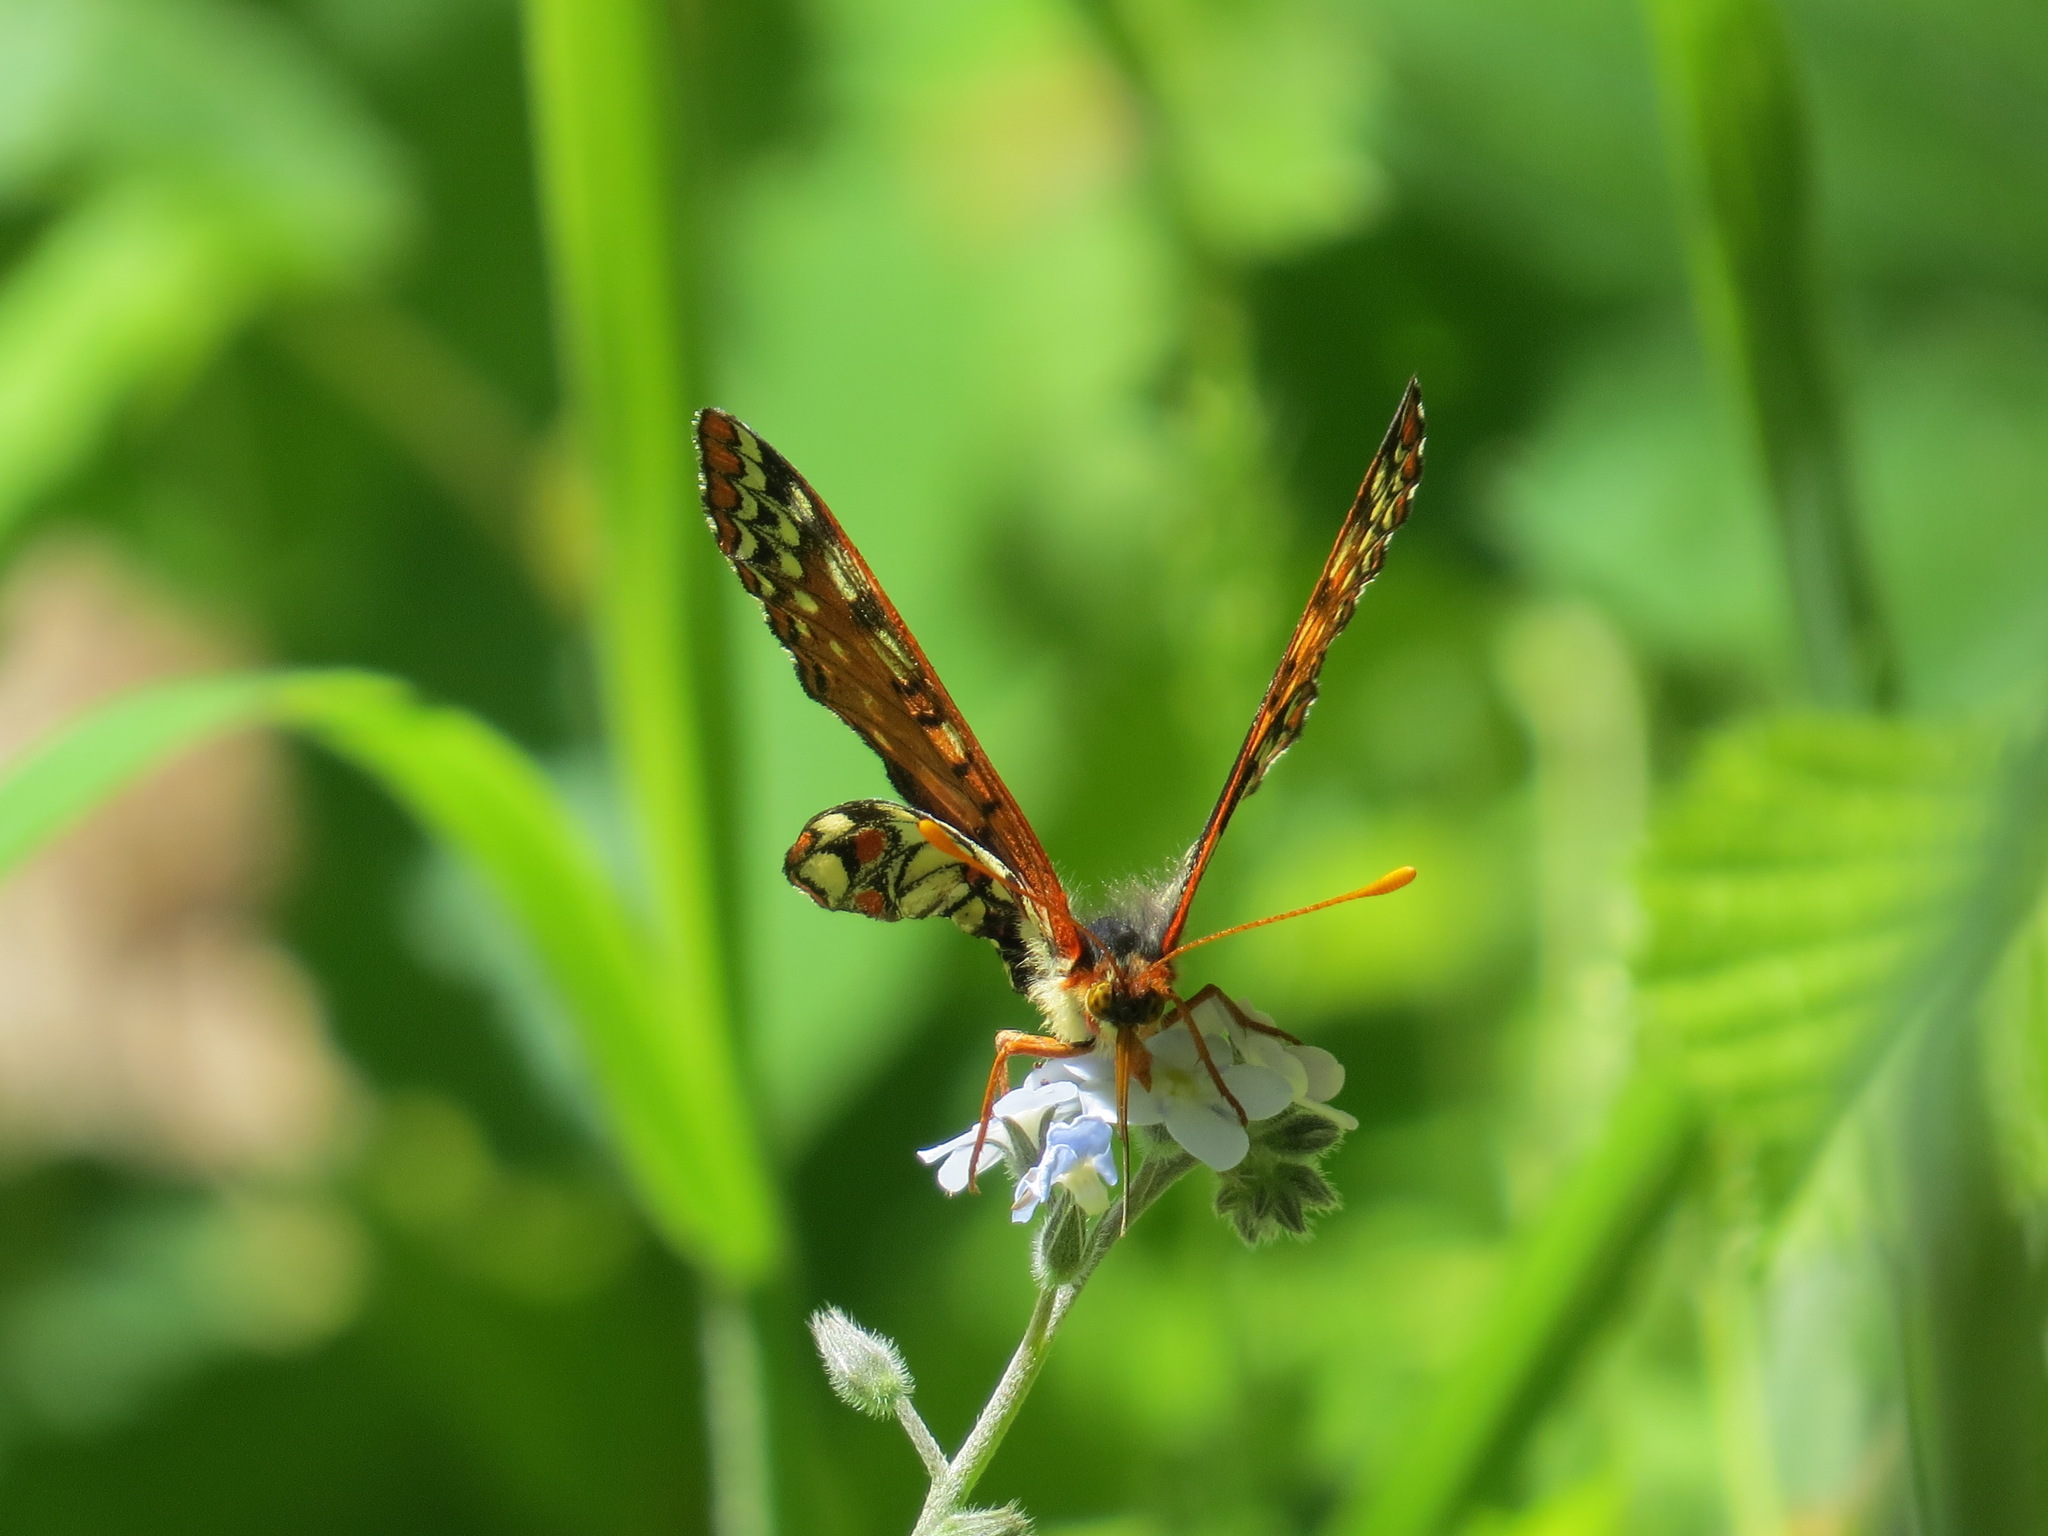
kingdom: Animalia
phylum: Arthropoda
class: Insecta
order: Lepidoptera
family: Nymphalidae
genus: Occidryas
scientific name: Occidryas chalcedona
